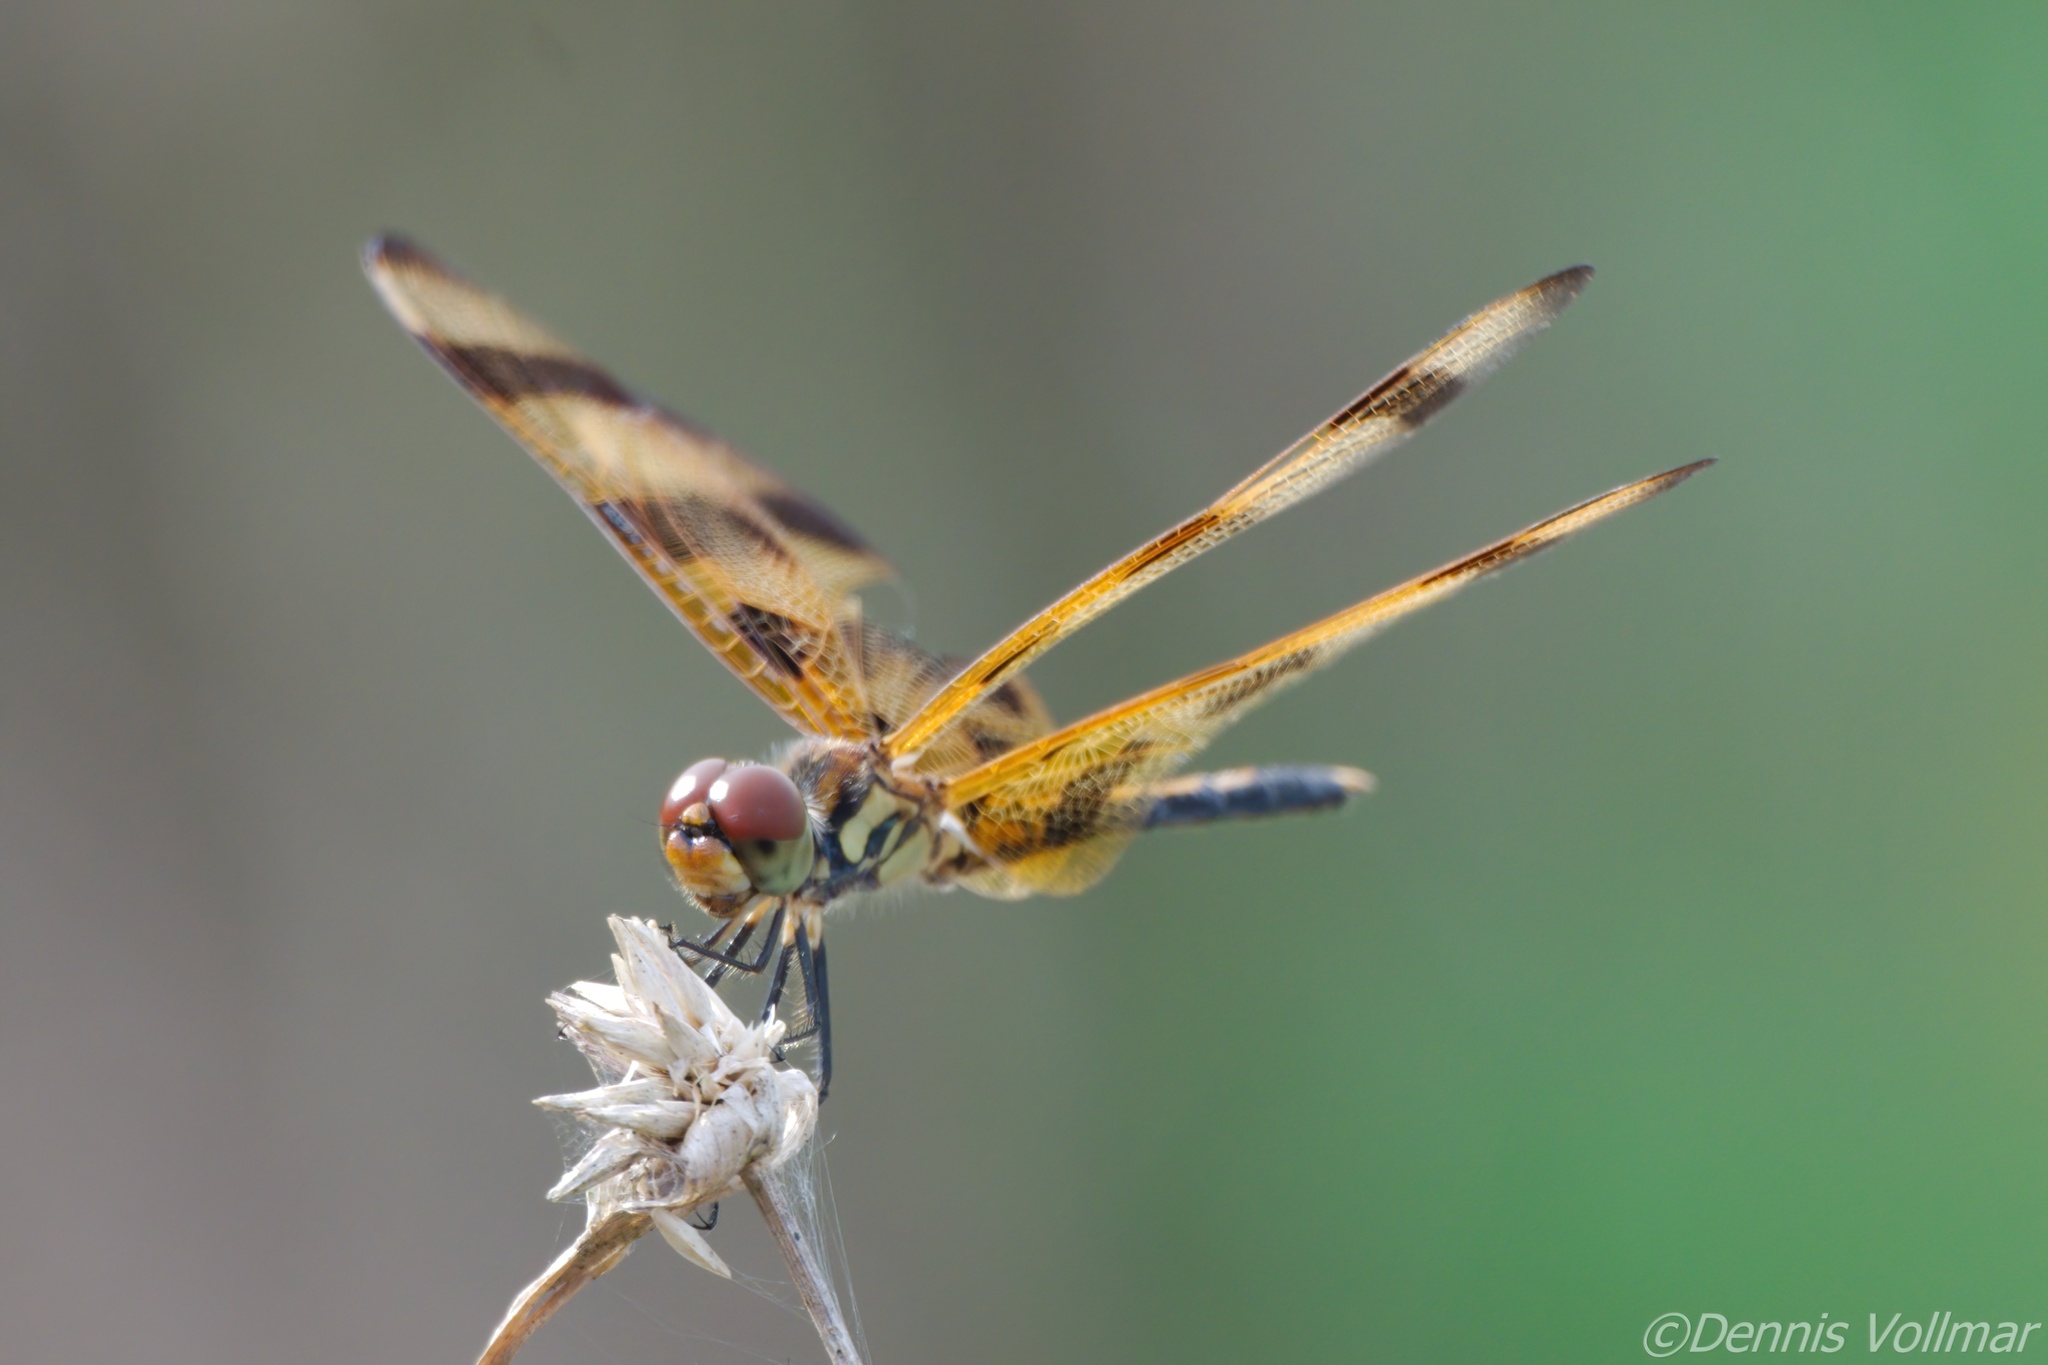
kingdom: Animalia
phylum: Arthropoda
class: Insecta
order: Odonata
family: Libellulidae
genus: Celithemis
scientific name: Celithemis eponina
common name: Halloween pennant
